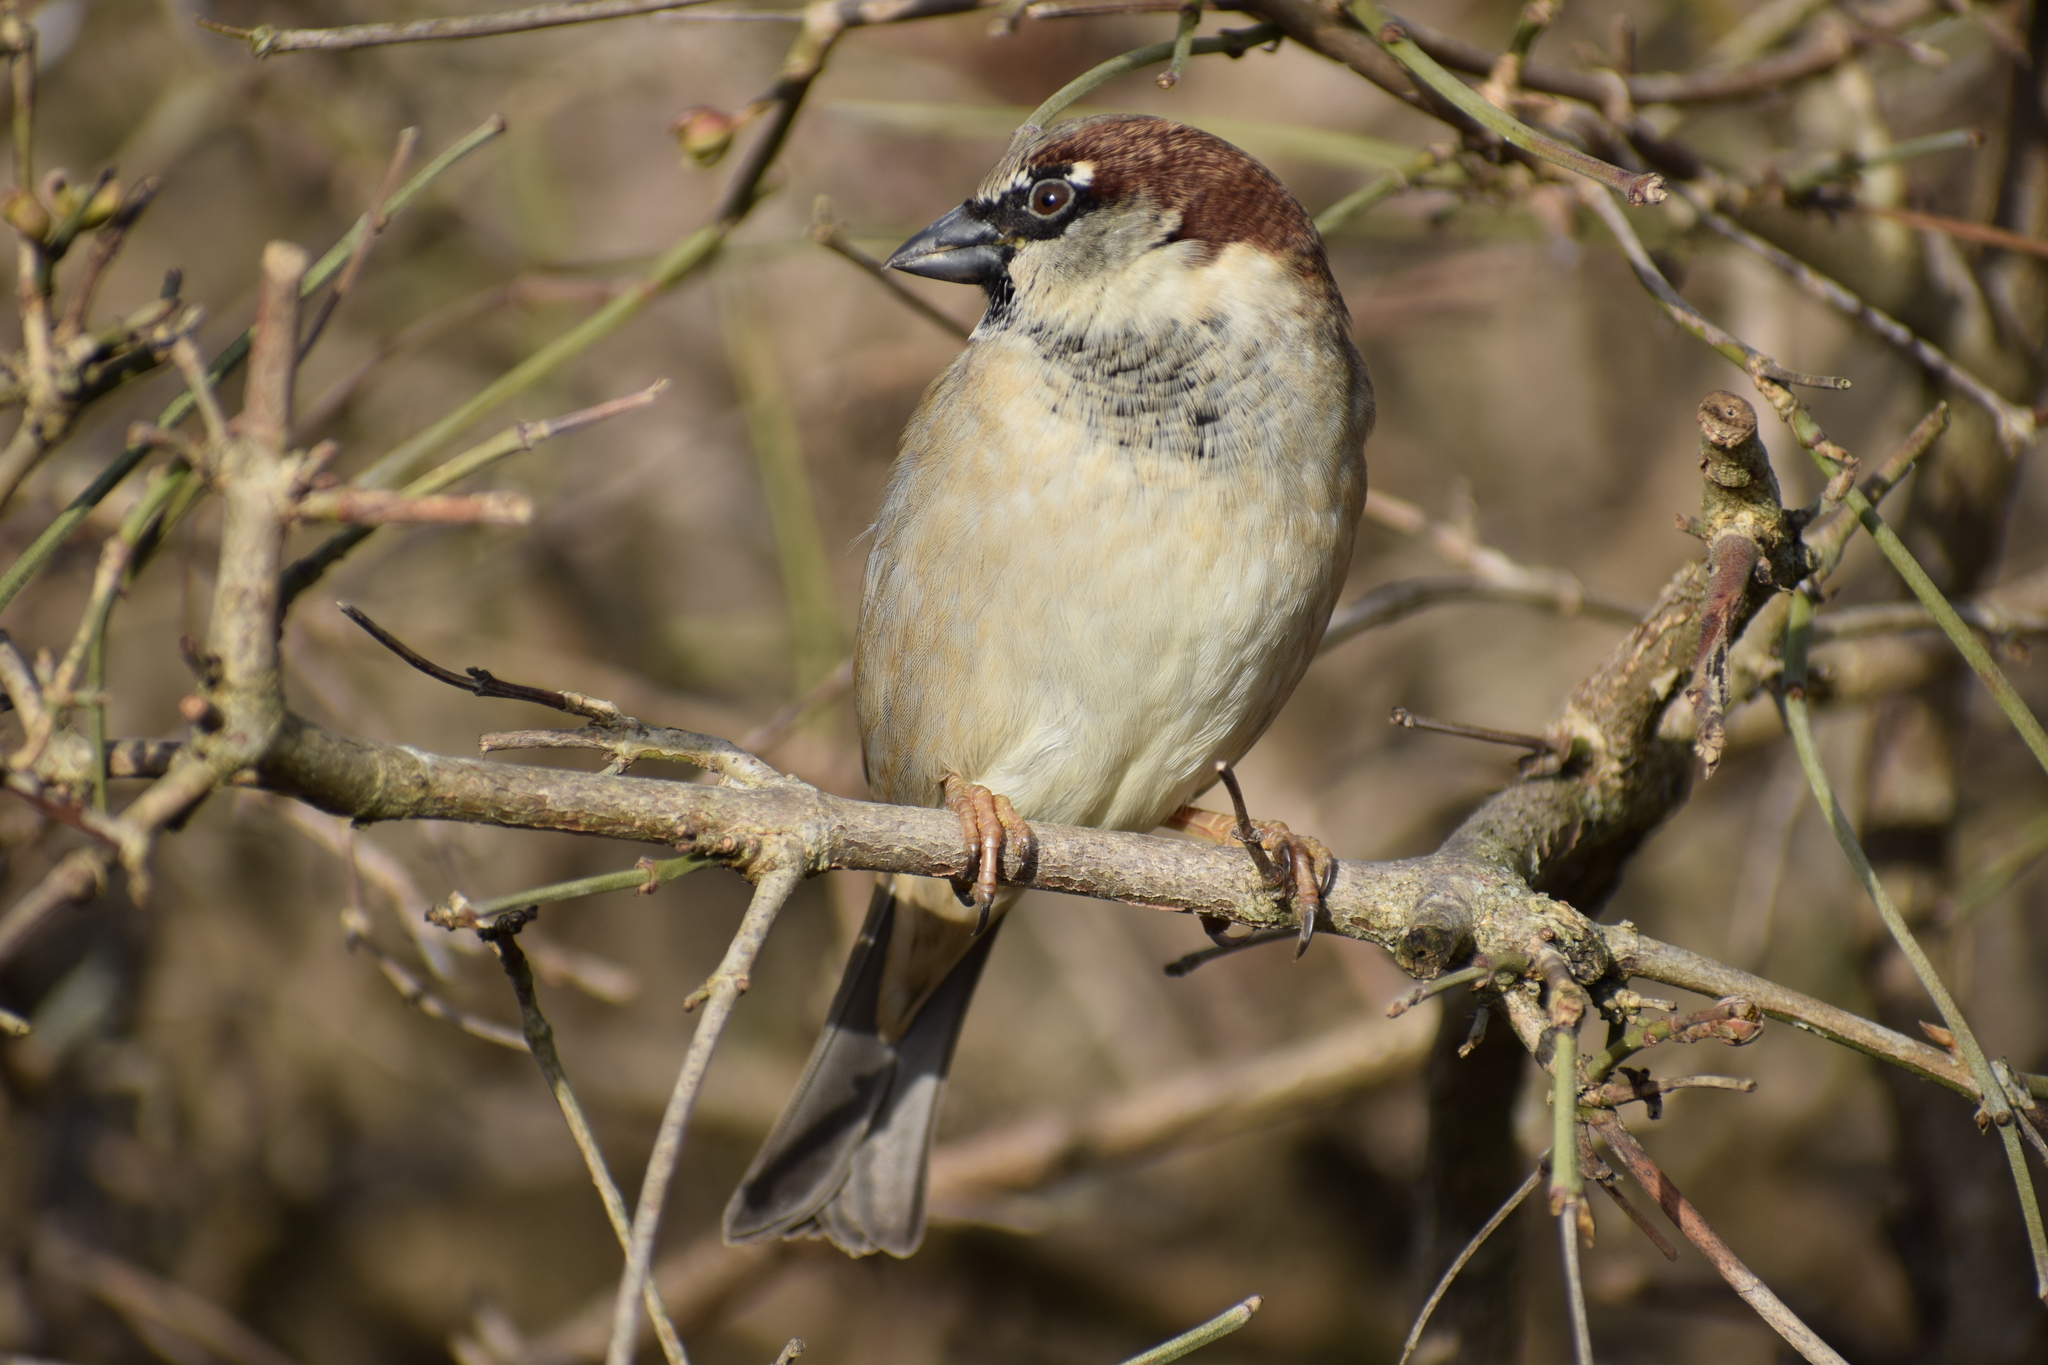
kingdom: Animalia
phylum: Chordata
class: Aves
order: Passeriformes
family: Passeridae
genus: Passer
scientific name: Passer domesticus
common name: House sparrow
